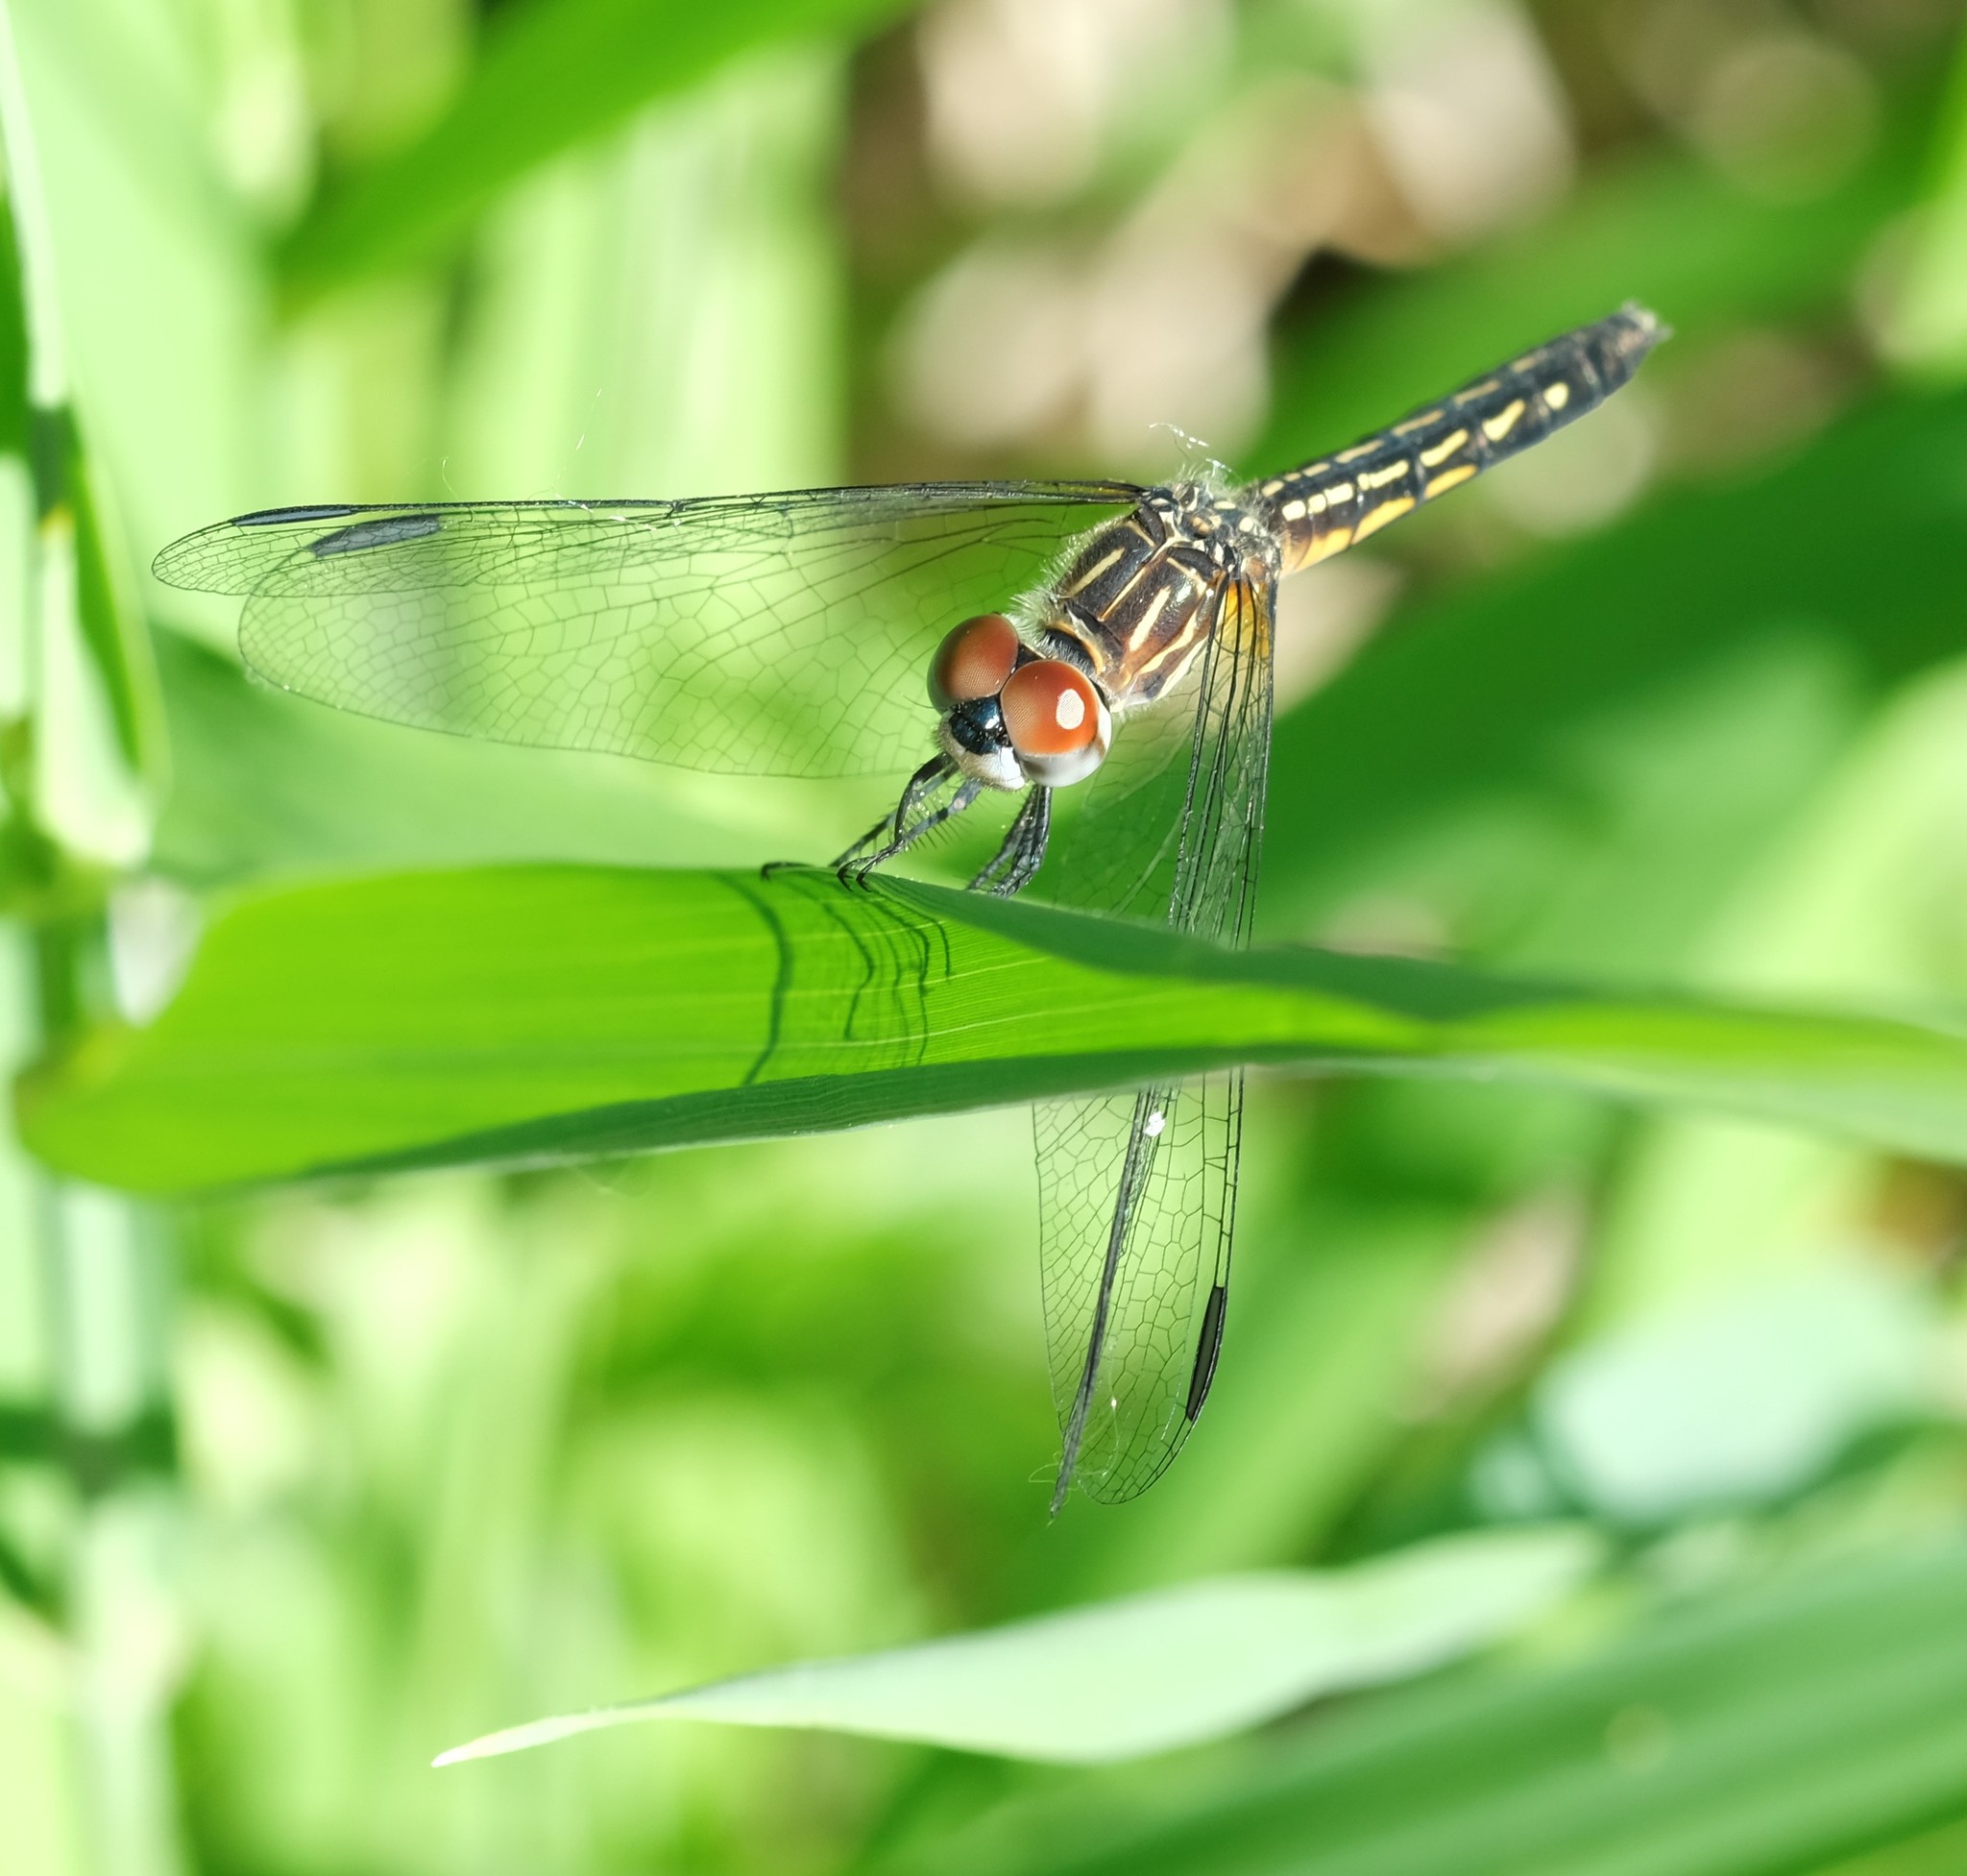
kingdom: Animalia
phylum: Arthropoda
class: Insecta
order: Odonata
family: Libellulidae
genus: Pachydiplax
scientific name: Pachydiplax longipennis
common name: Blue dasher
